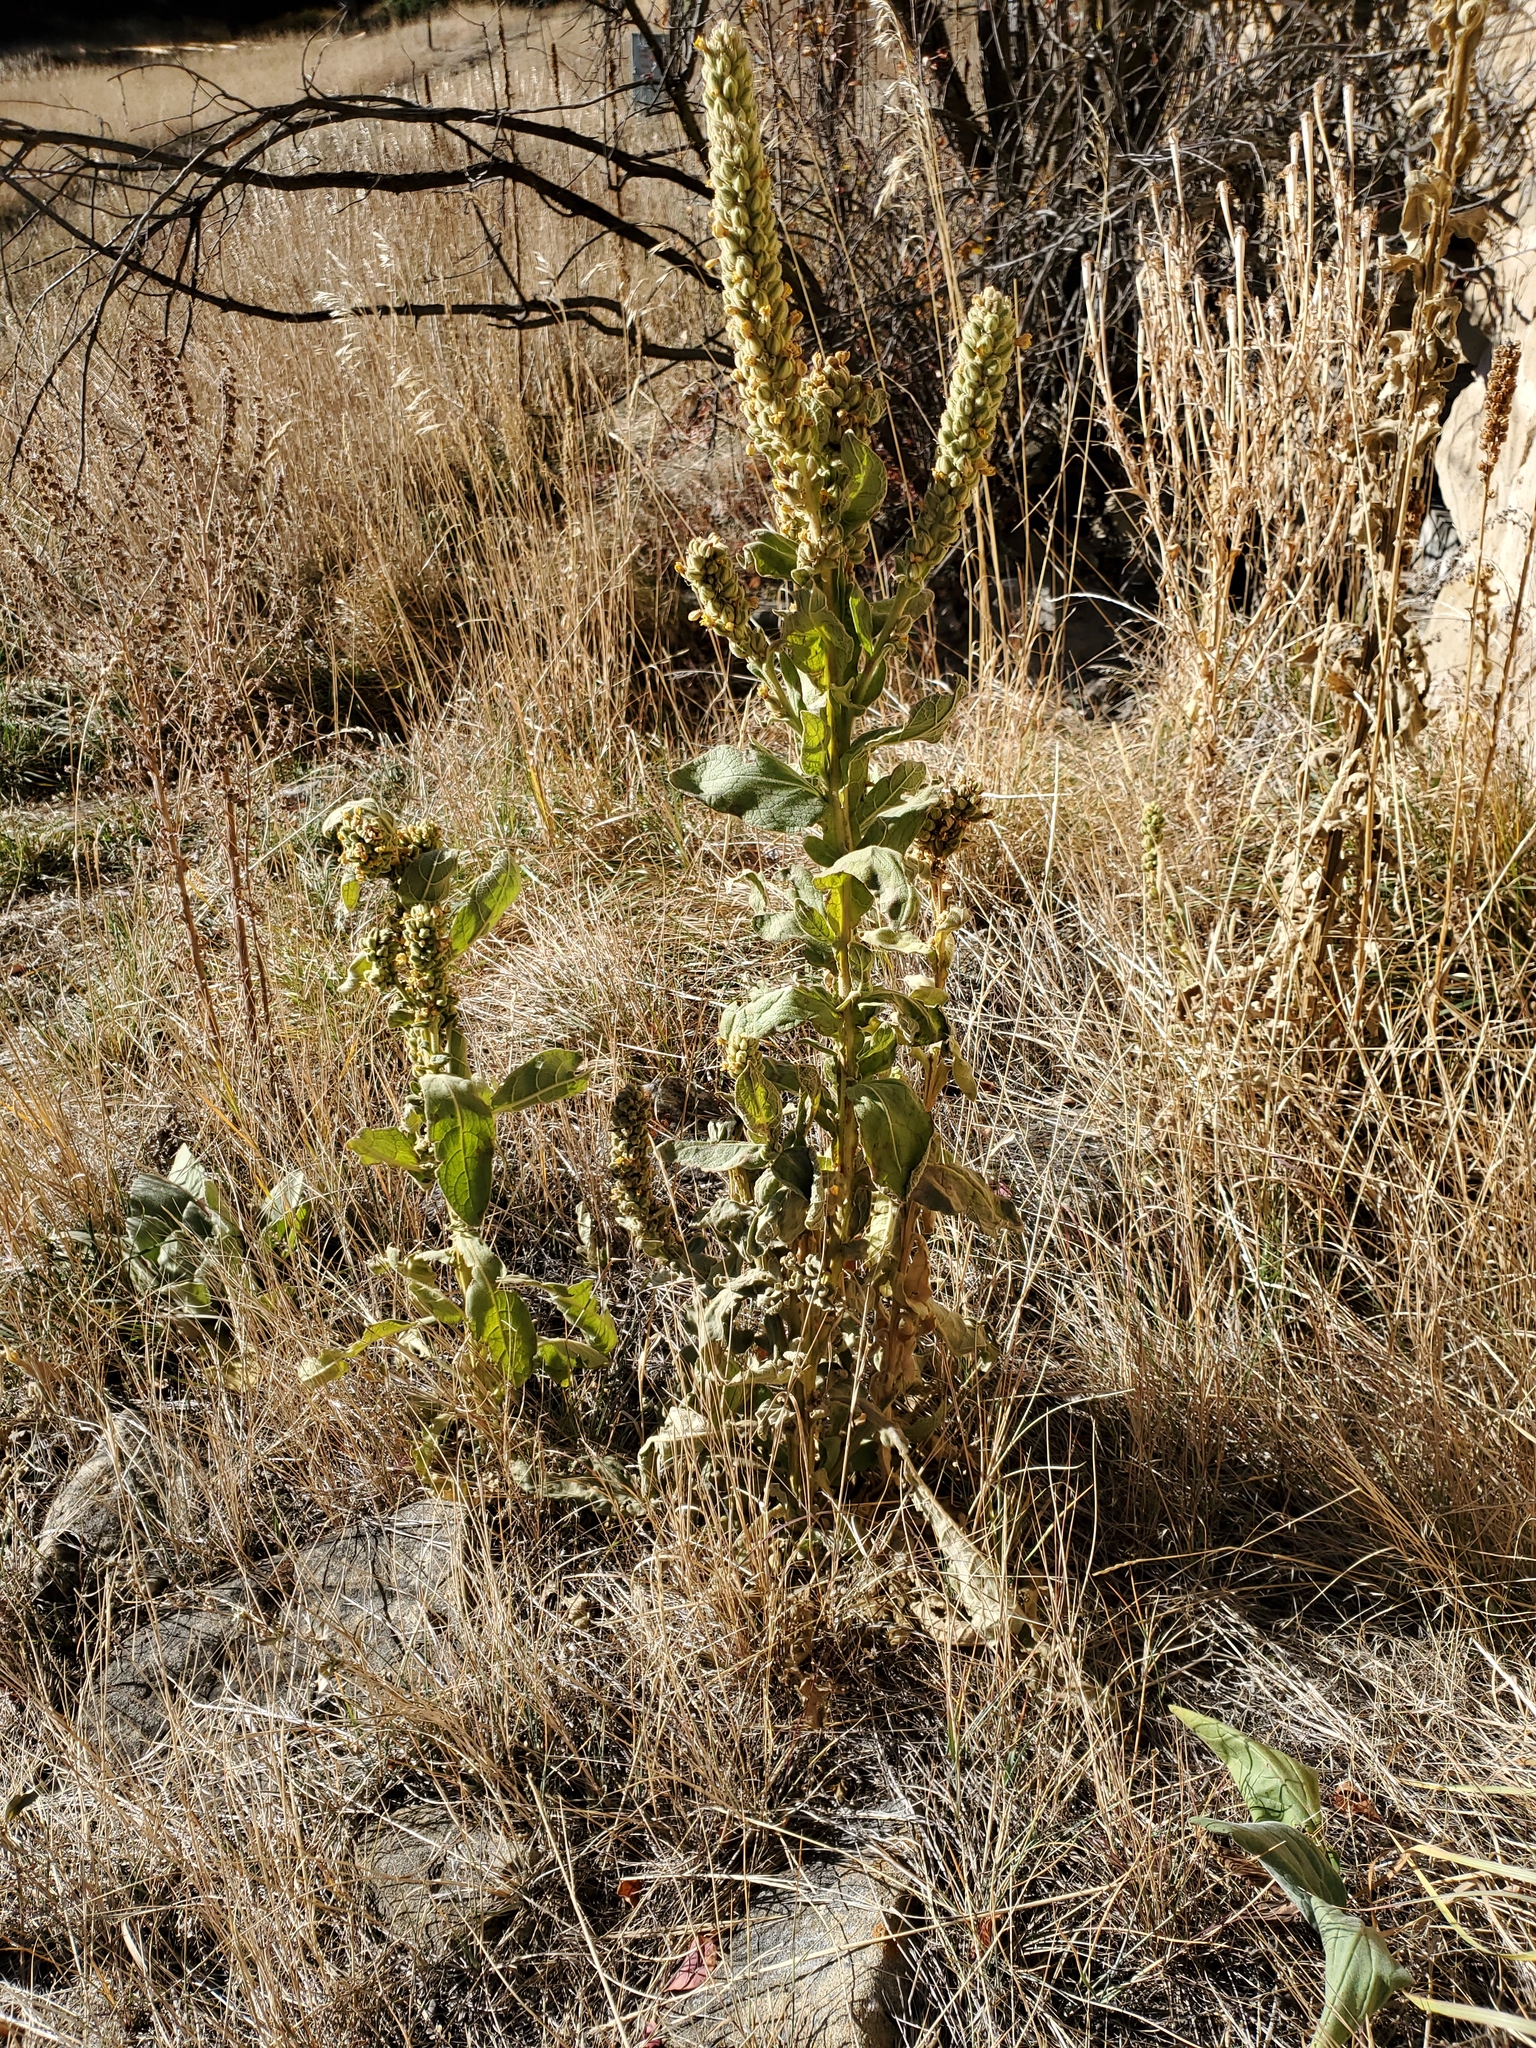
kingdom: Plantae
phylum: Tracheophyta
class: Magnoliopsida
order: Lamiales
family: Scrophulariaceae
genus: Verbascum
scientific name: Verbascum thapsus
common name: Common mullein
